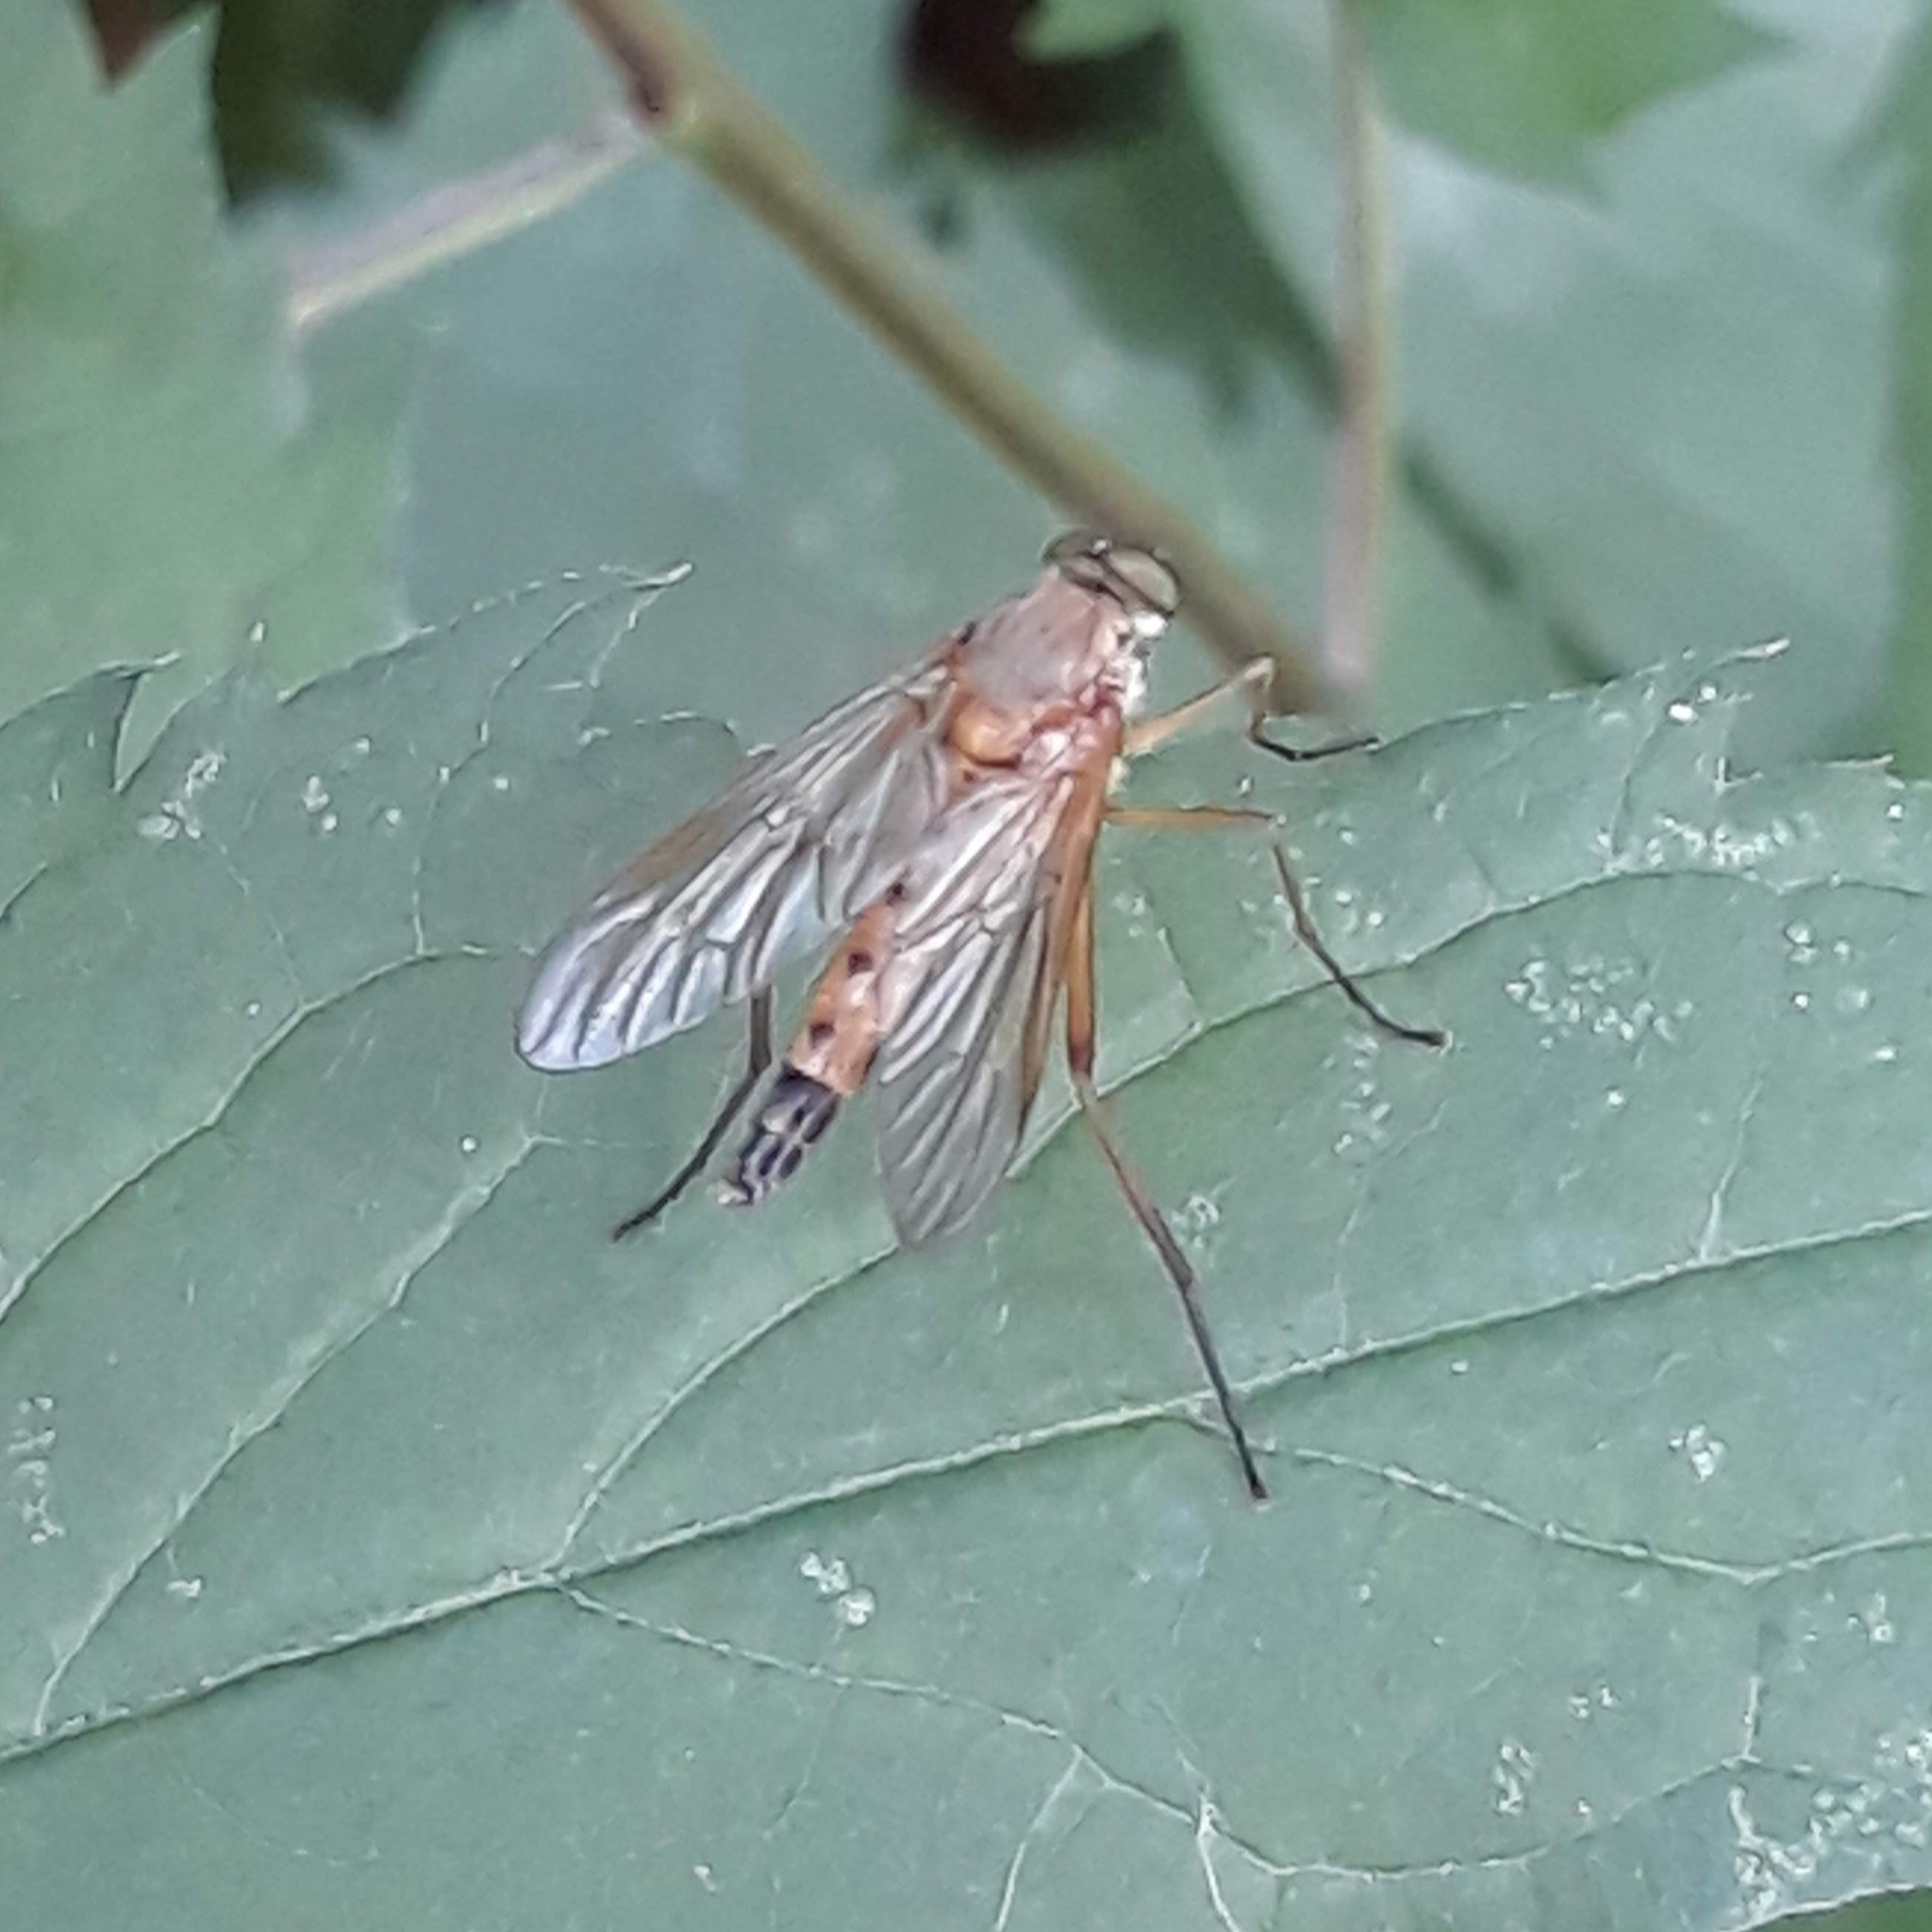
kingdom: Animalia
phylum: Arthropoda
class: Insecta
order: Diptera
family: Rhagionidae
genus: Rhagio
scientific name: Rhagio tringaria
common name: Marsh snipefly
